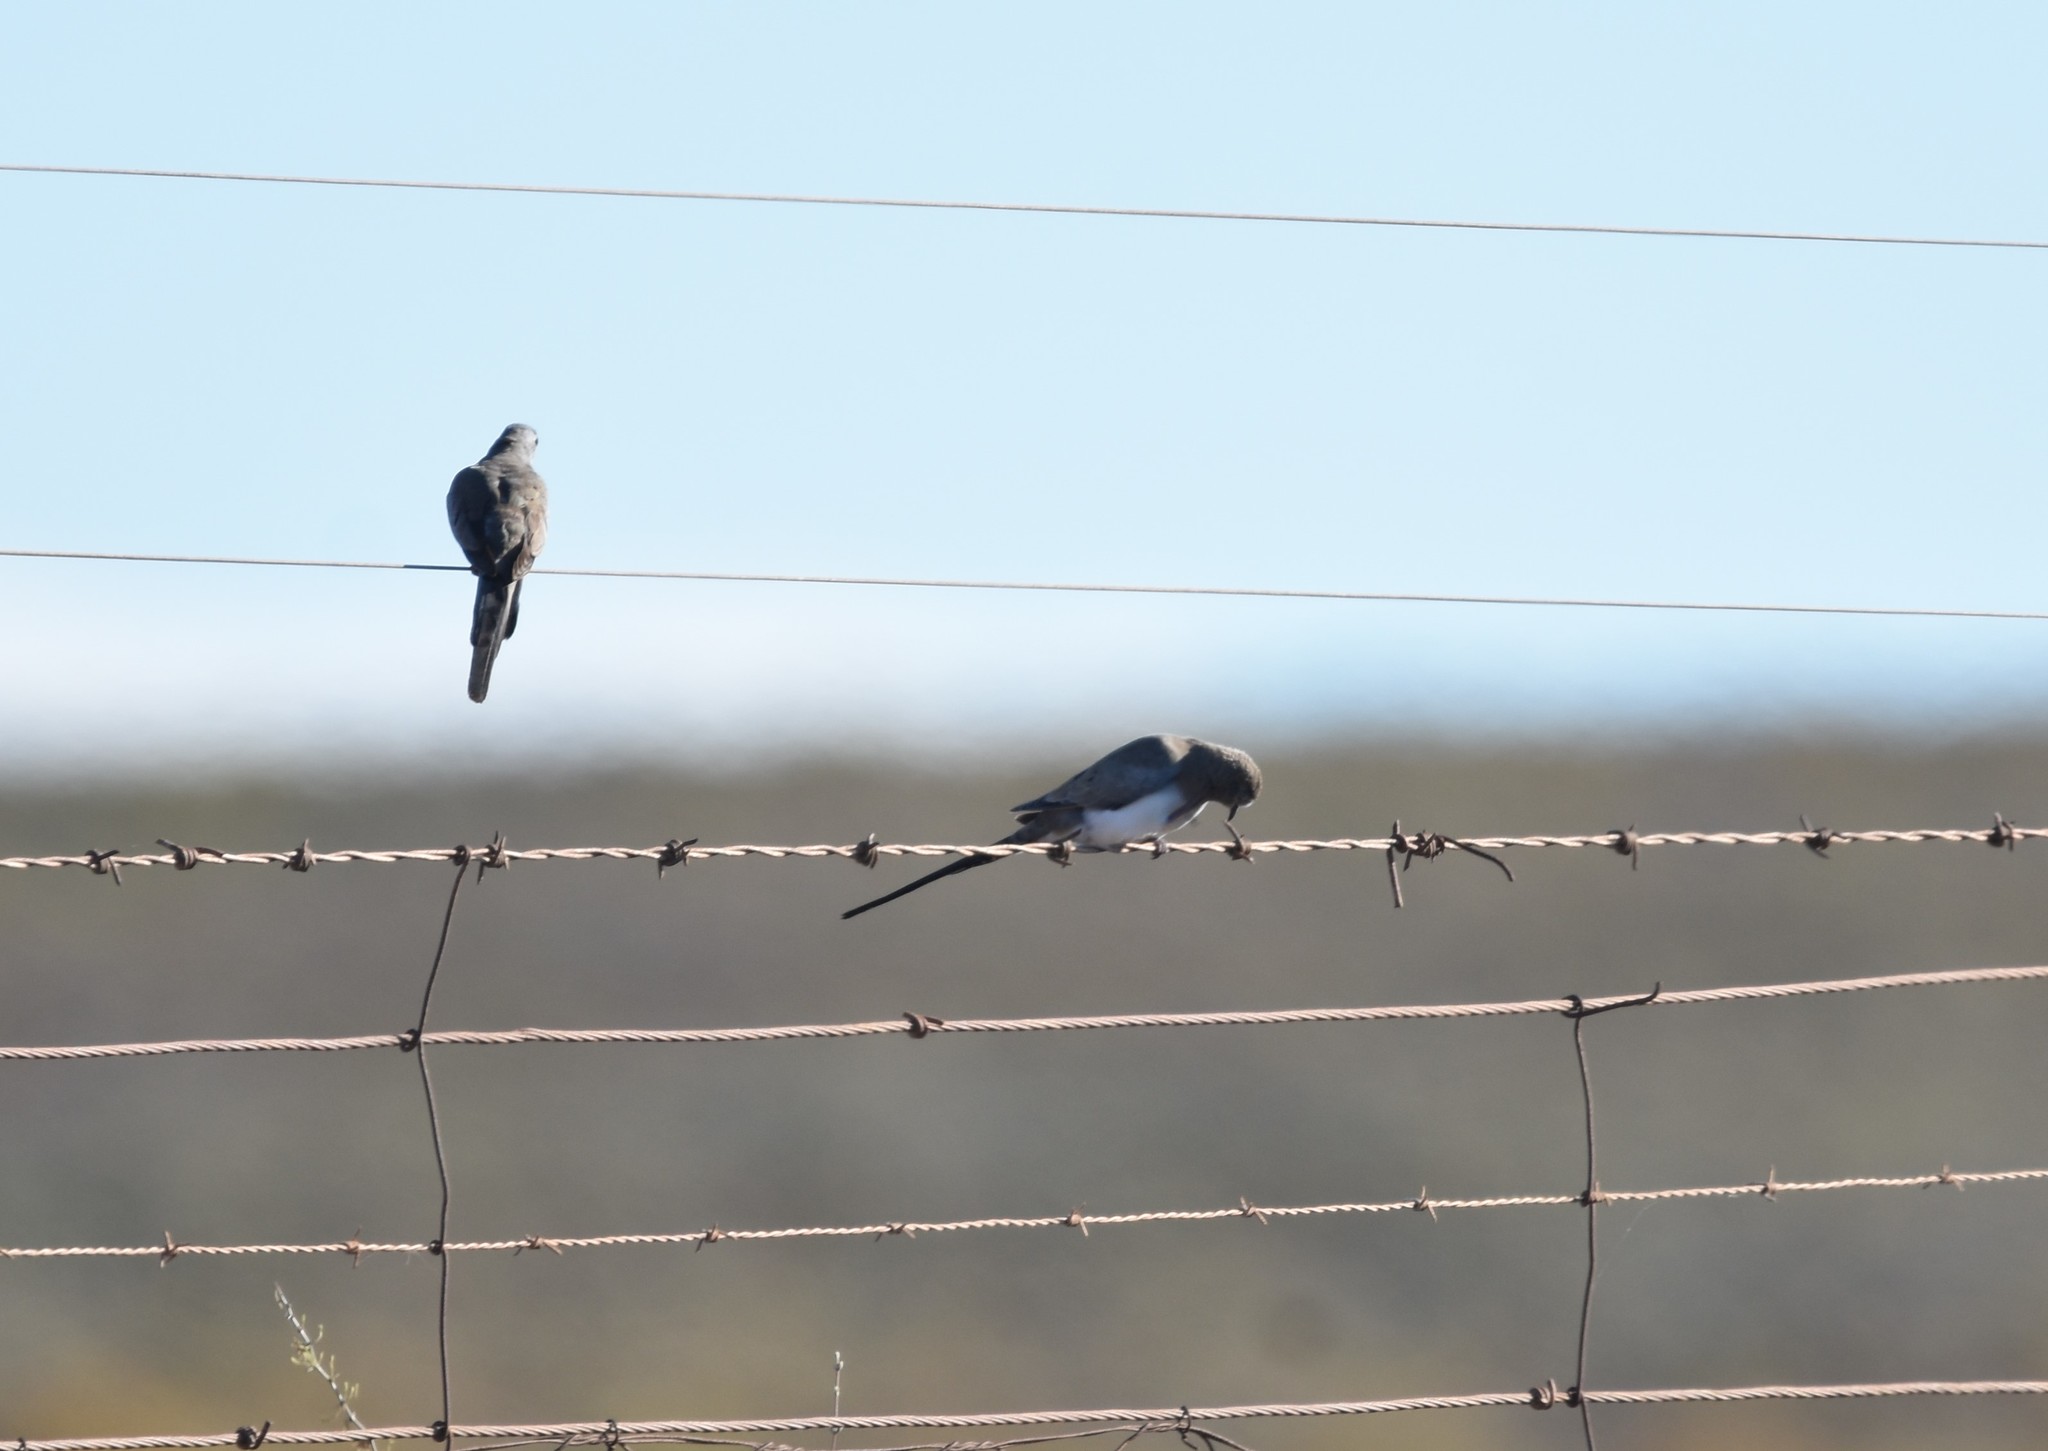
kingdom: Animalia
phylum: Chordata
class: Aves
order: Columbiformes
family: Columbidae
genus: Oena
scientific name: Oena capensis
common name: Namaqua dove
